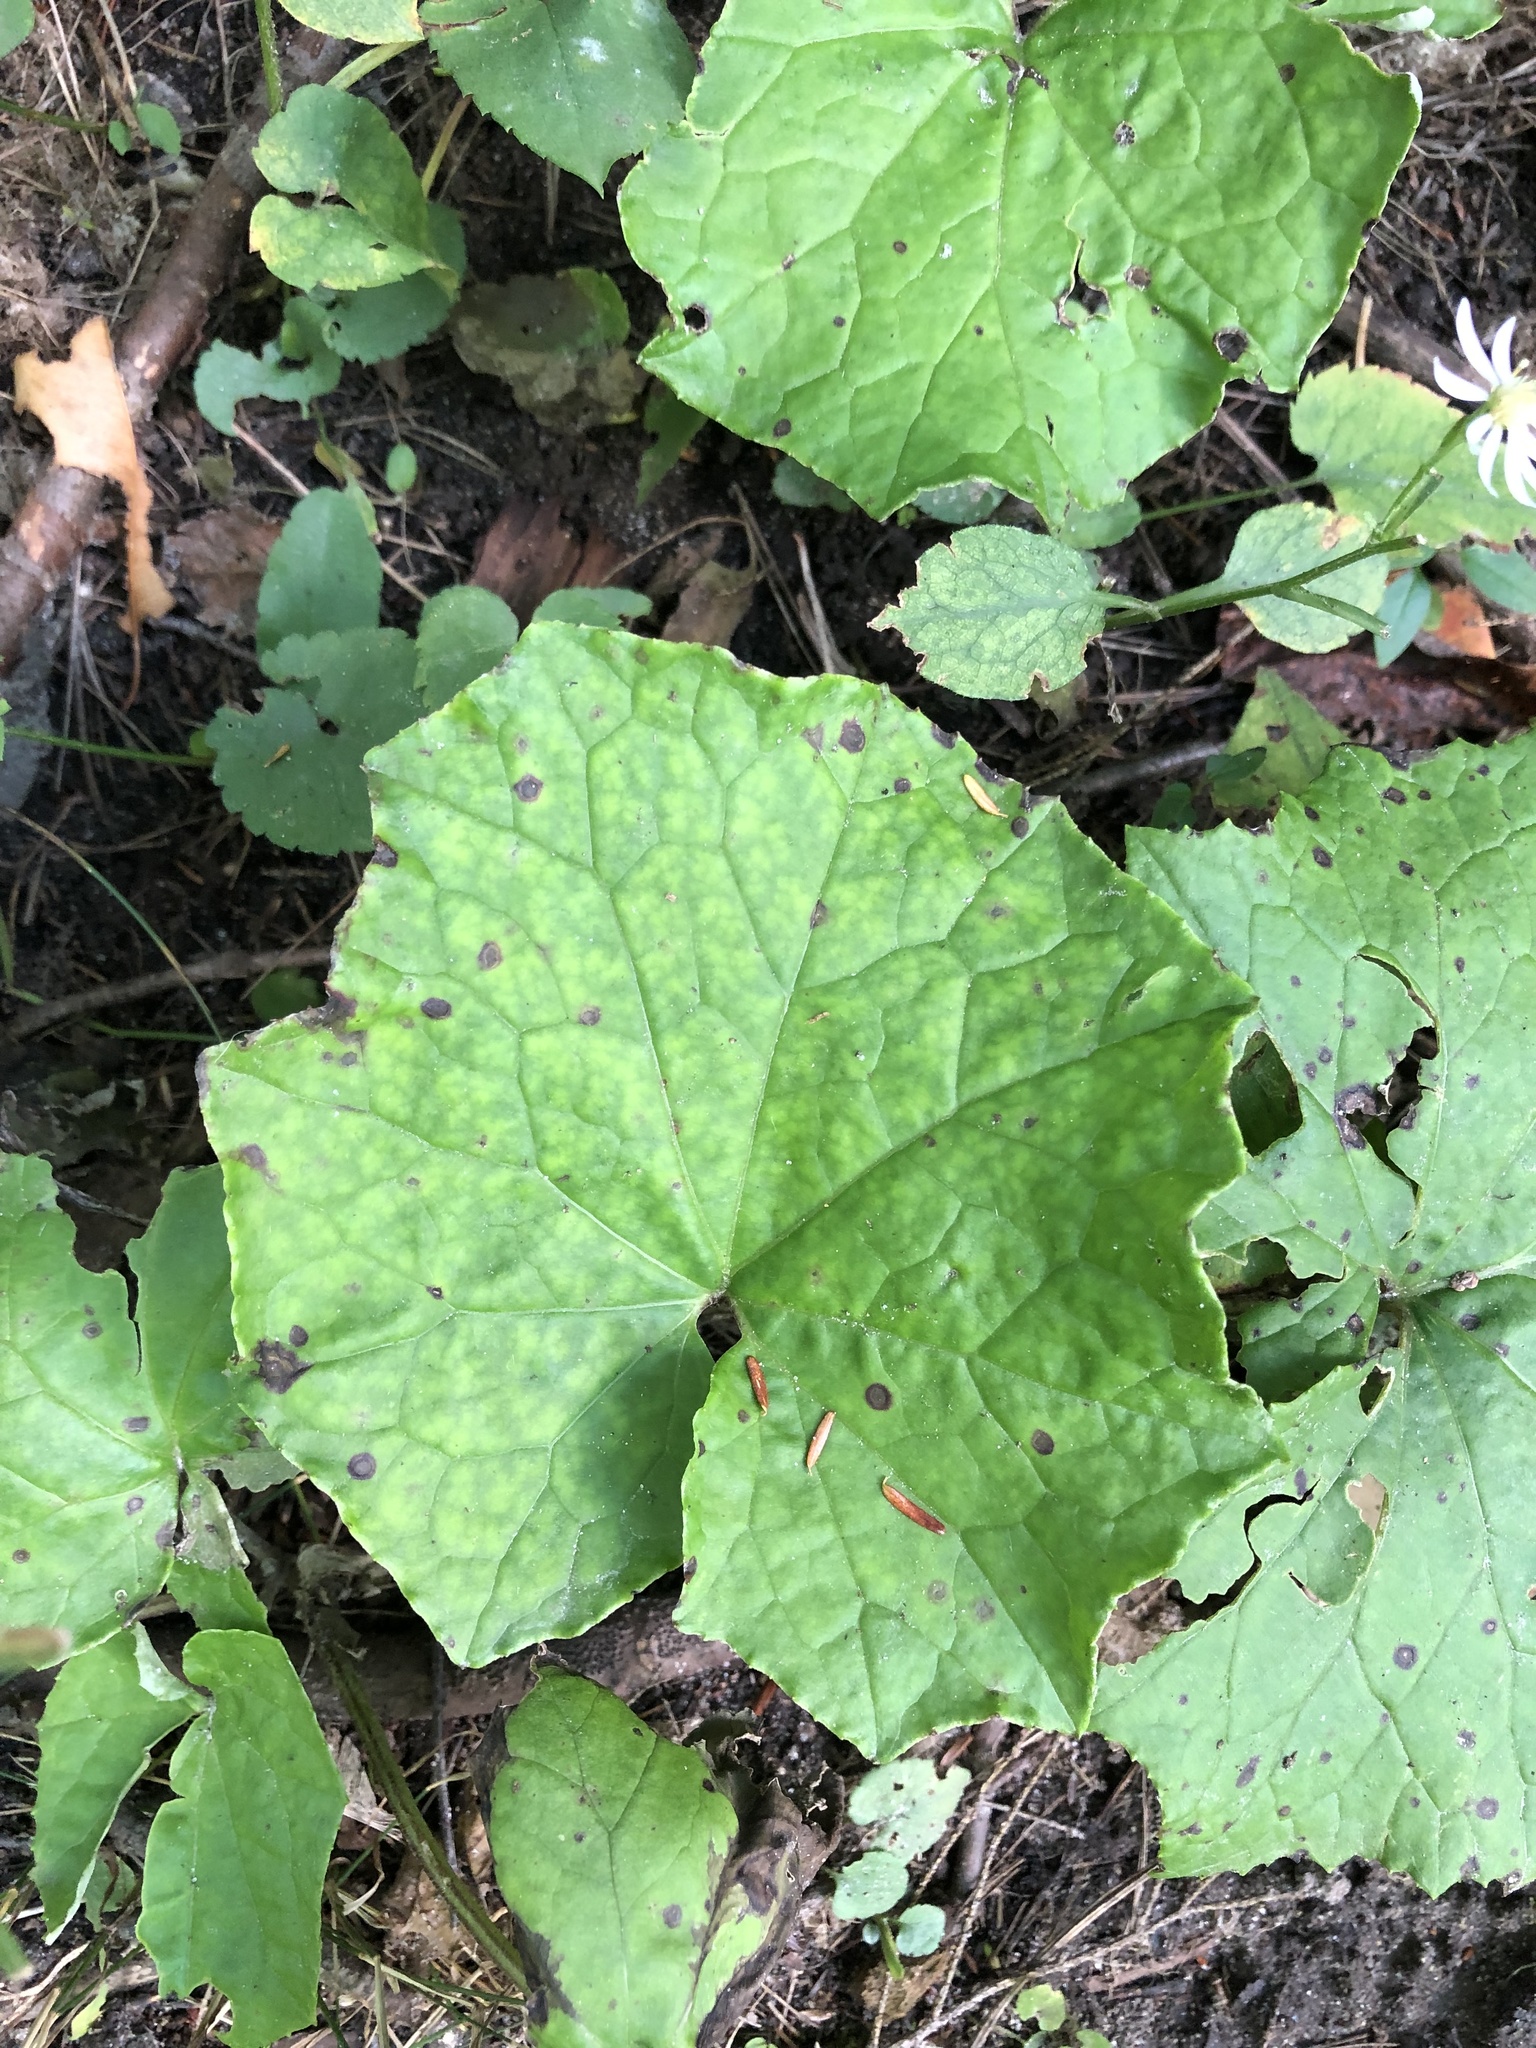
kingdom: Plantae
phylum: Tracheophyta
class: Magnoliopsida
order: Asterales
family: Asteraceae
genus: Tussilago
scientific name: Tussilago farfara
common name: Coltsfoot
